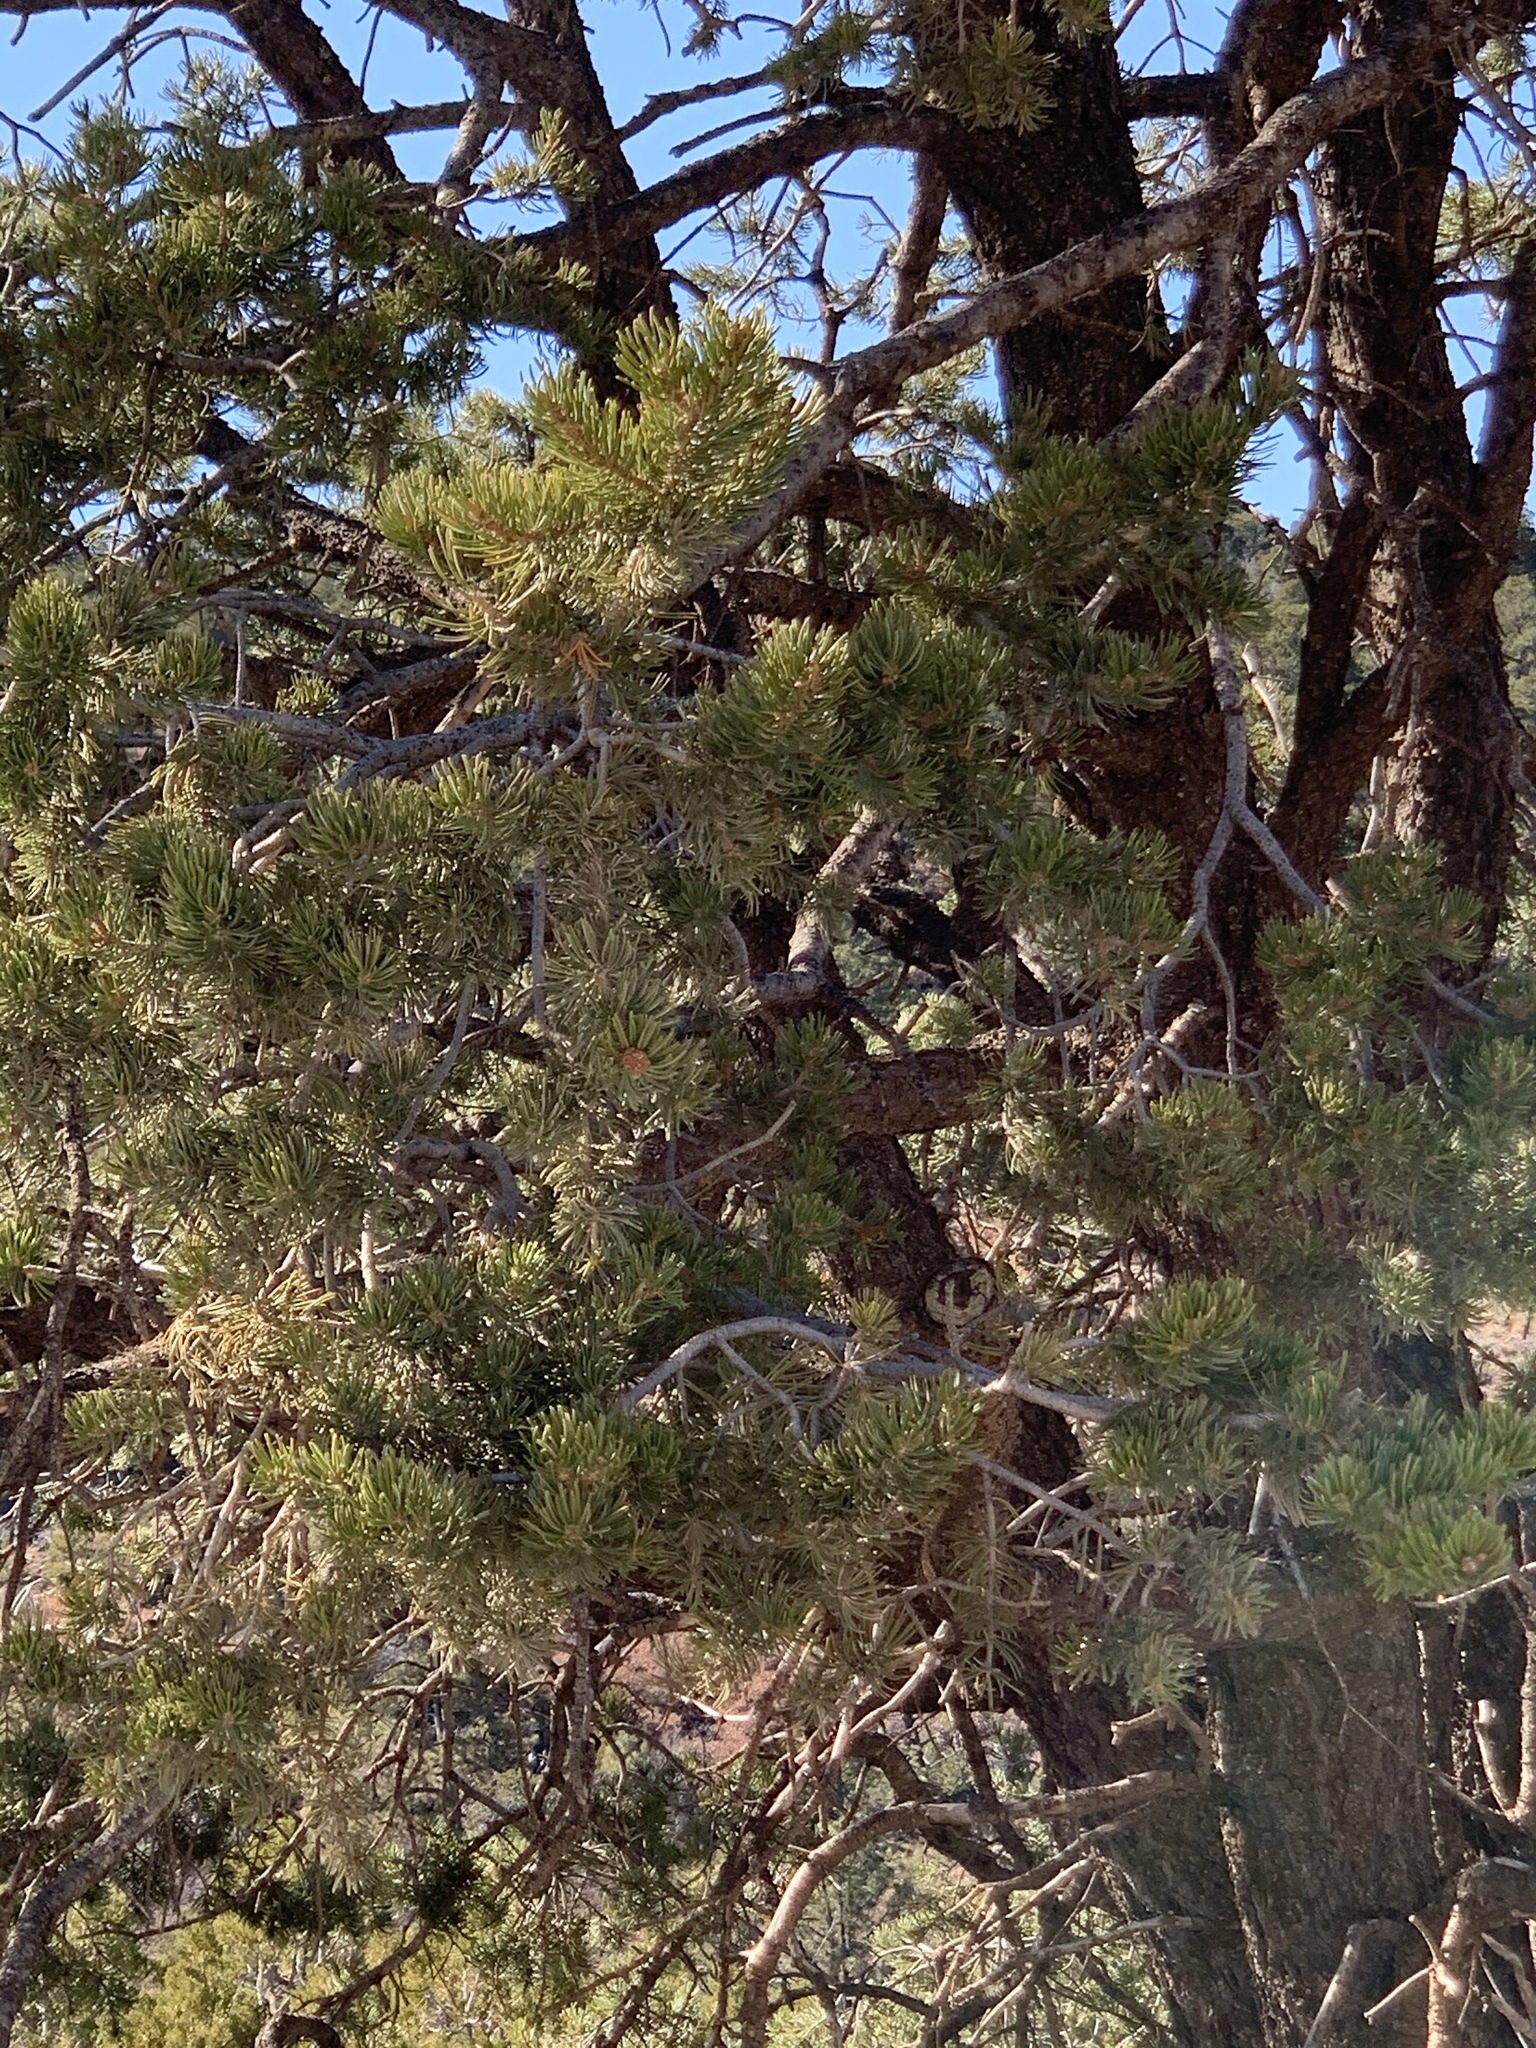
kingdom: Plantae
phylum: Tracheophyta
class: Pinopsida
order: Pinales
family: Pinaceae
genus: Pinus
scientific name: Pinus edulis
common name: Colorado pinyon
